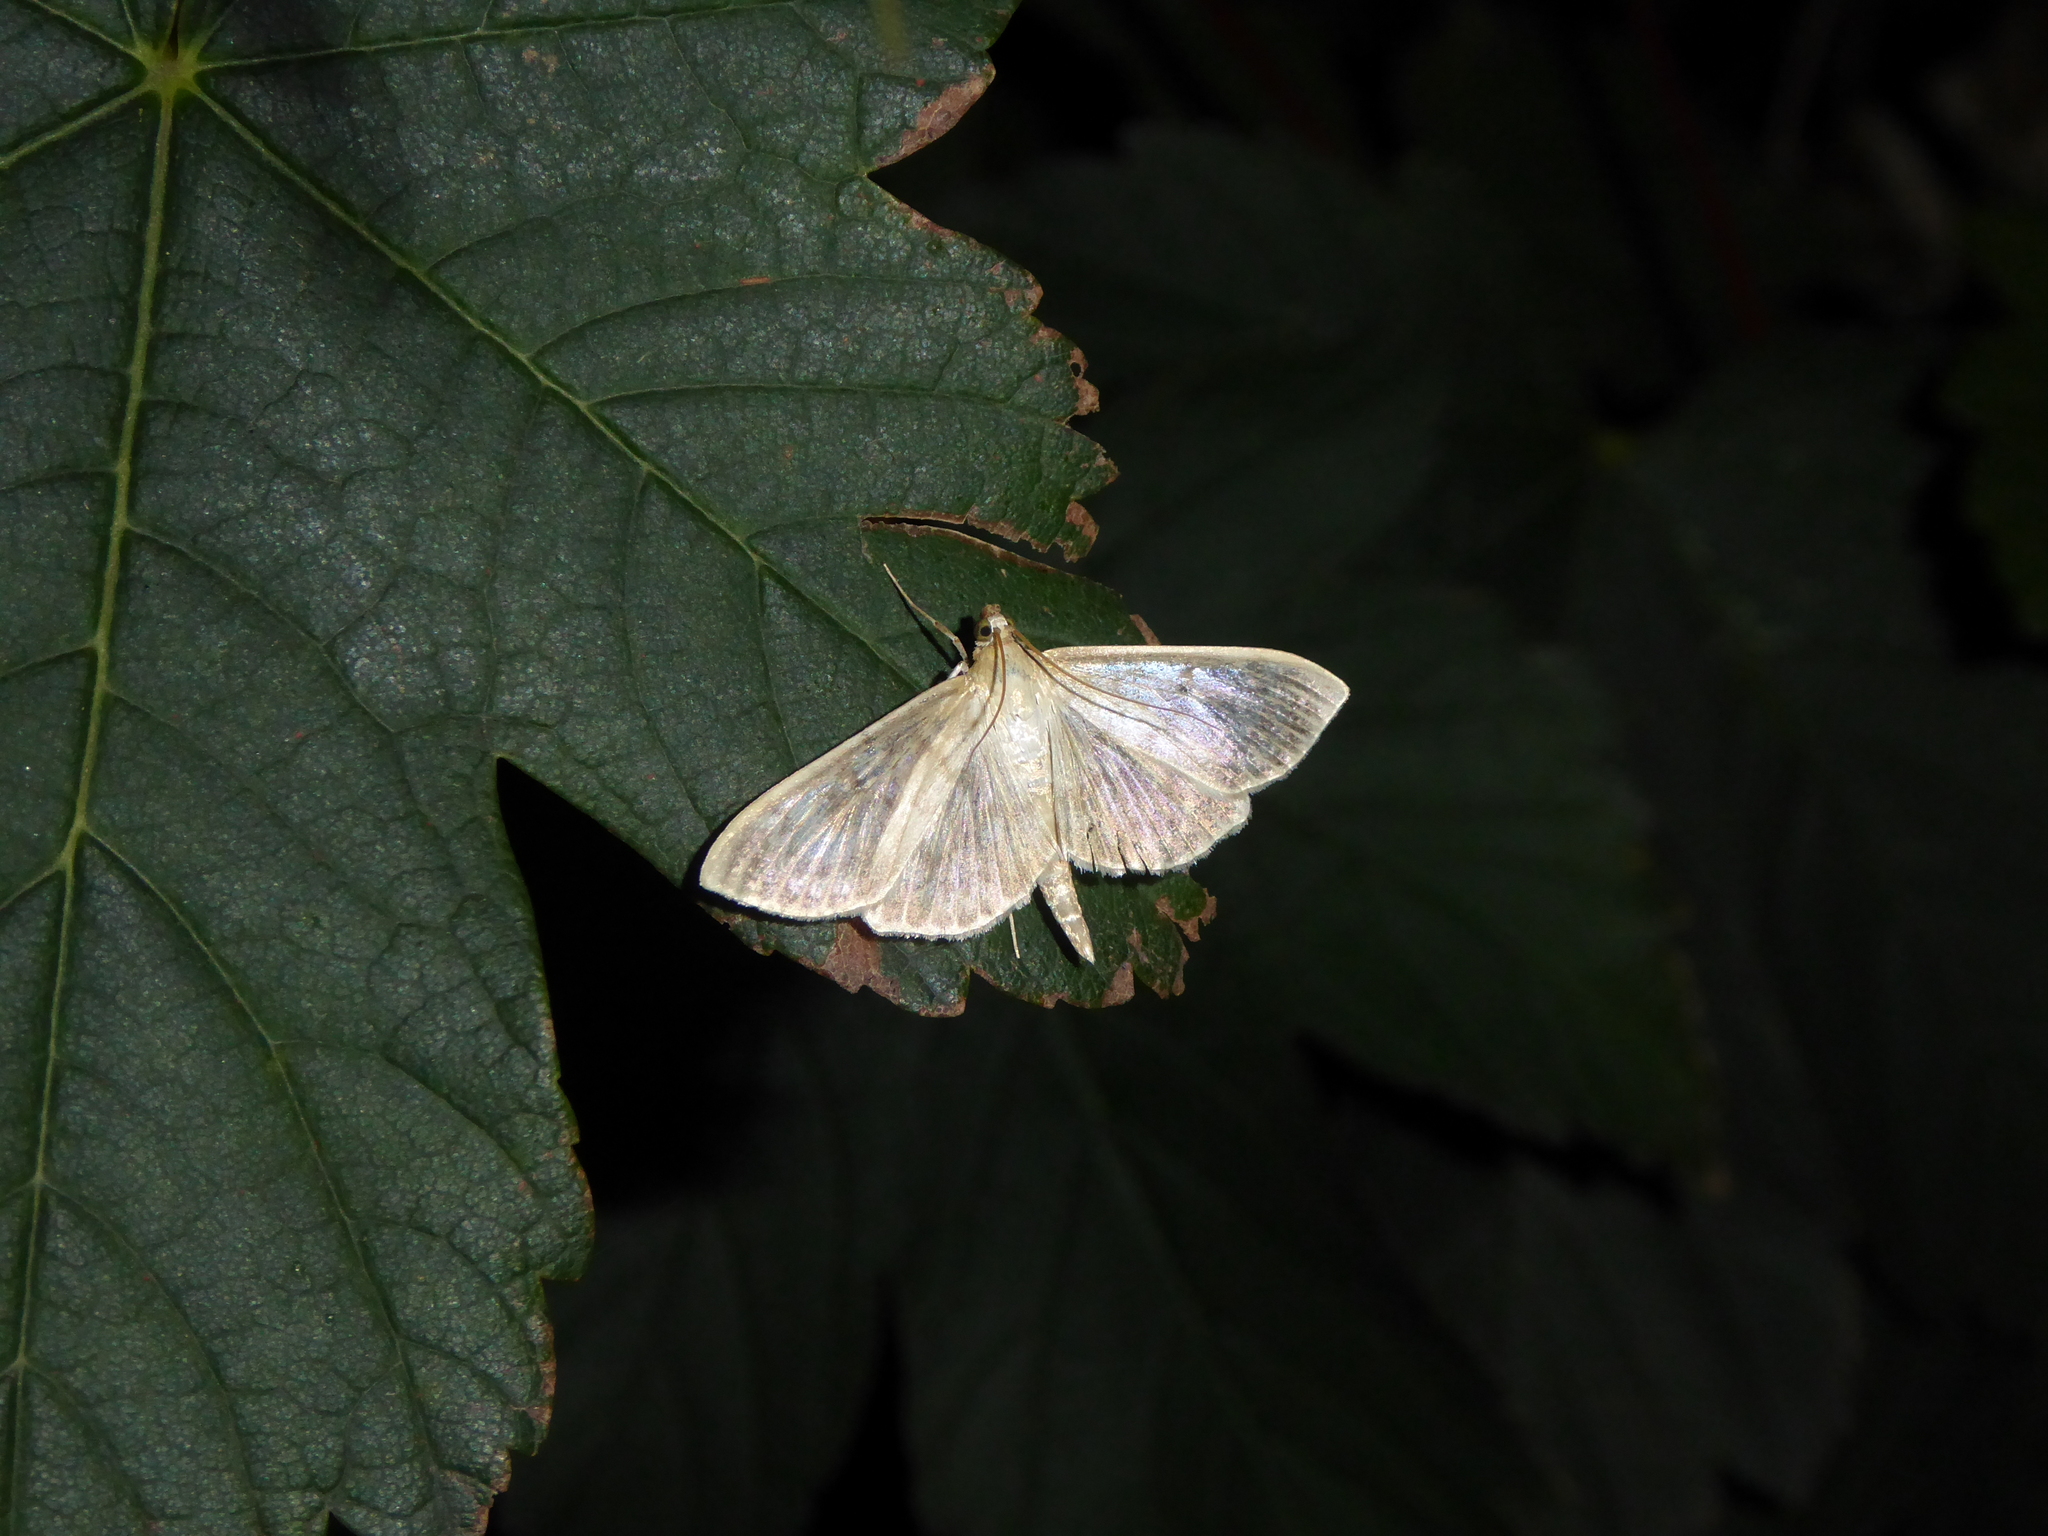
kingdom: Animalia
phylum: Arthropoda
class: Insecta
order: Lepidoptera
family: Crambidae
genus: Patania
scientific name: Patania ruralis
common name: Mother of pearl
